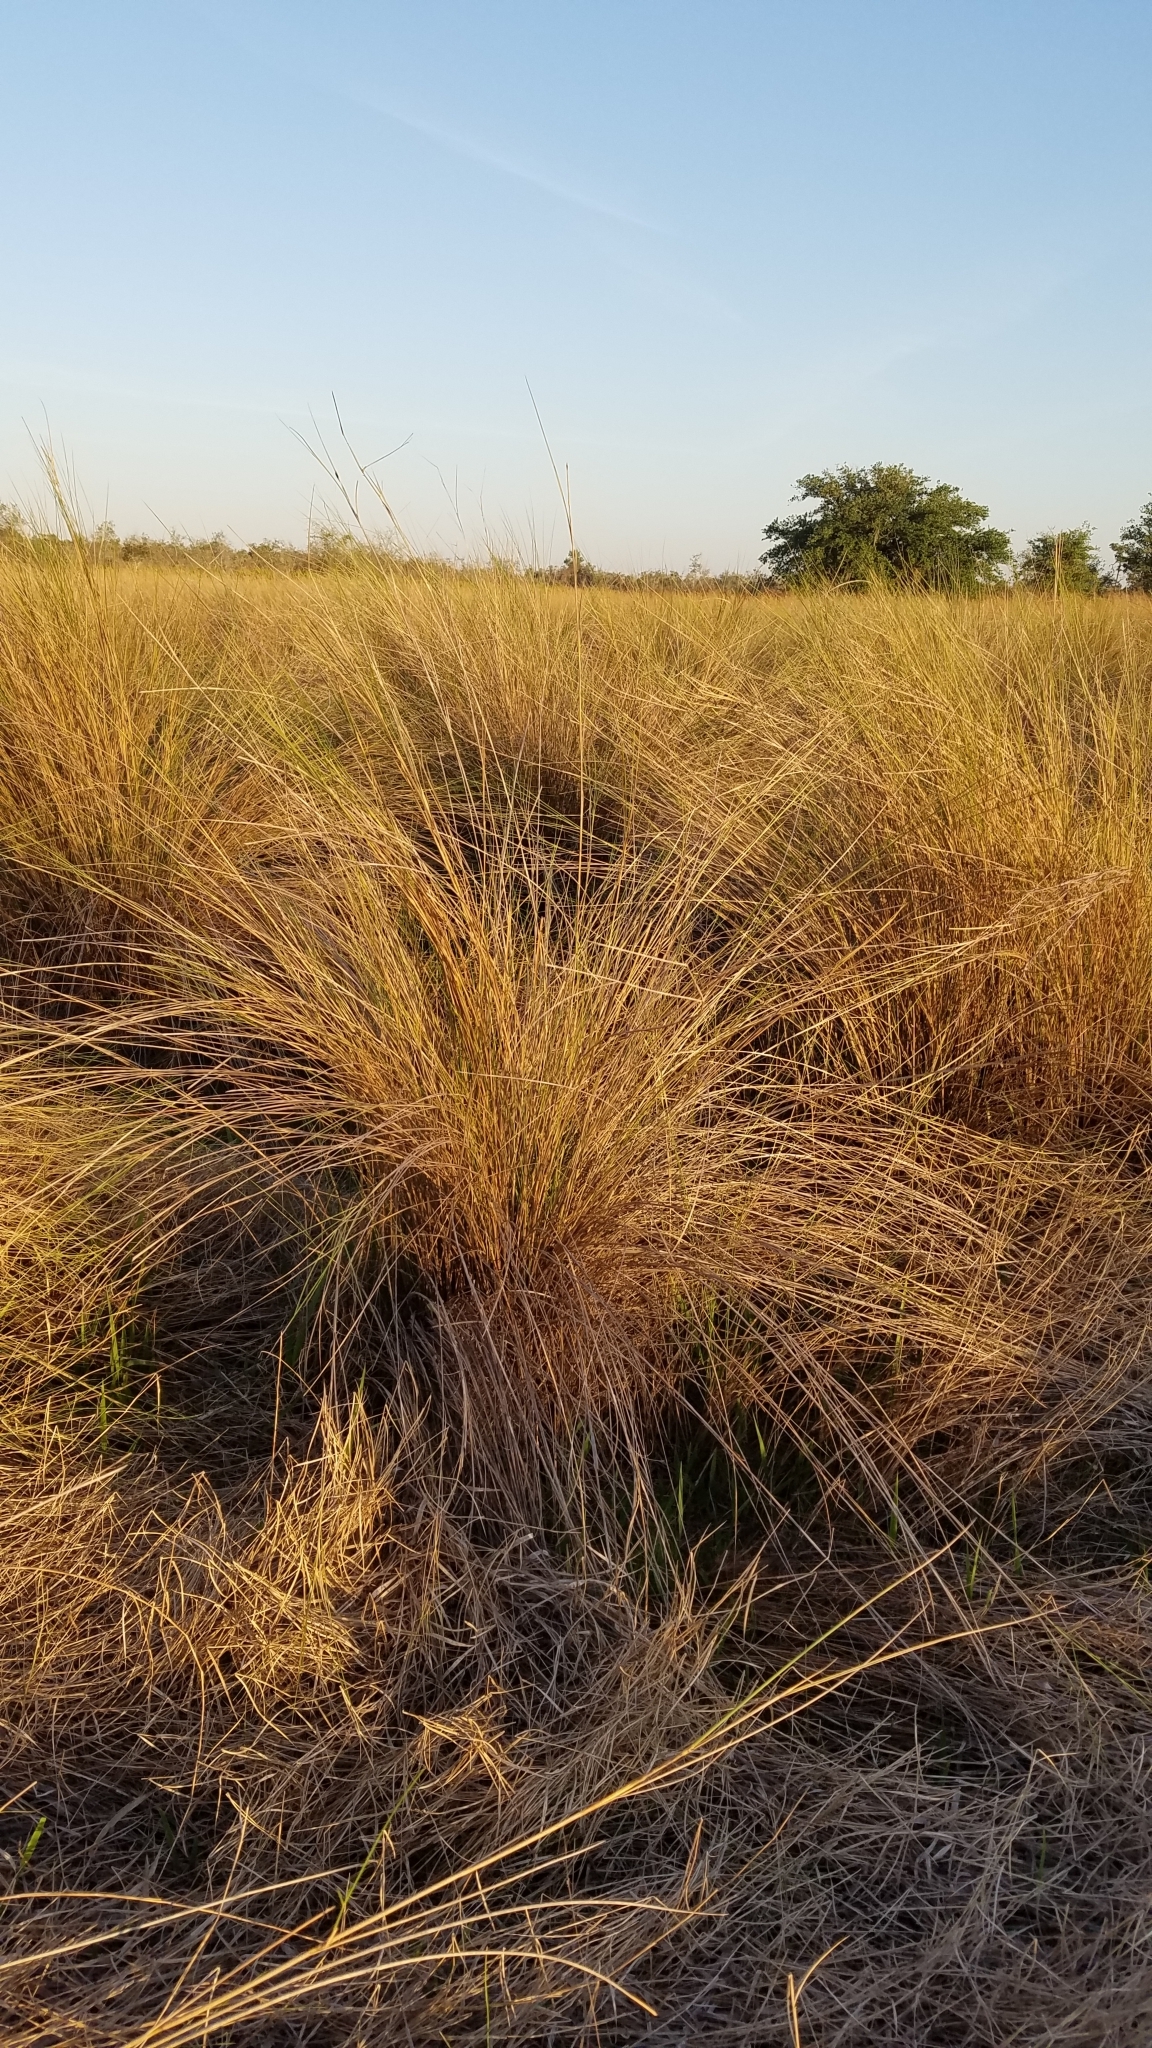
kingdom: Plantae
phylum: Tracheophyta
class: Liliopsida
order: Poales
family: Poaceae
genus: Sporobolus
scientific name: Sporobolus bakeri
